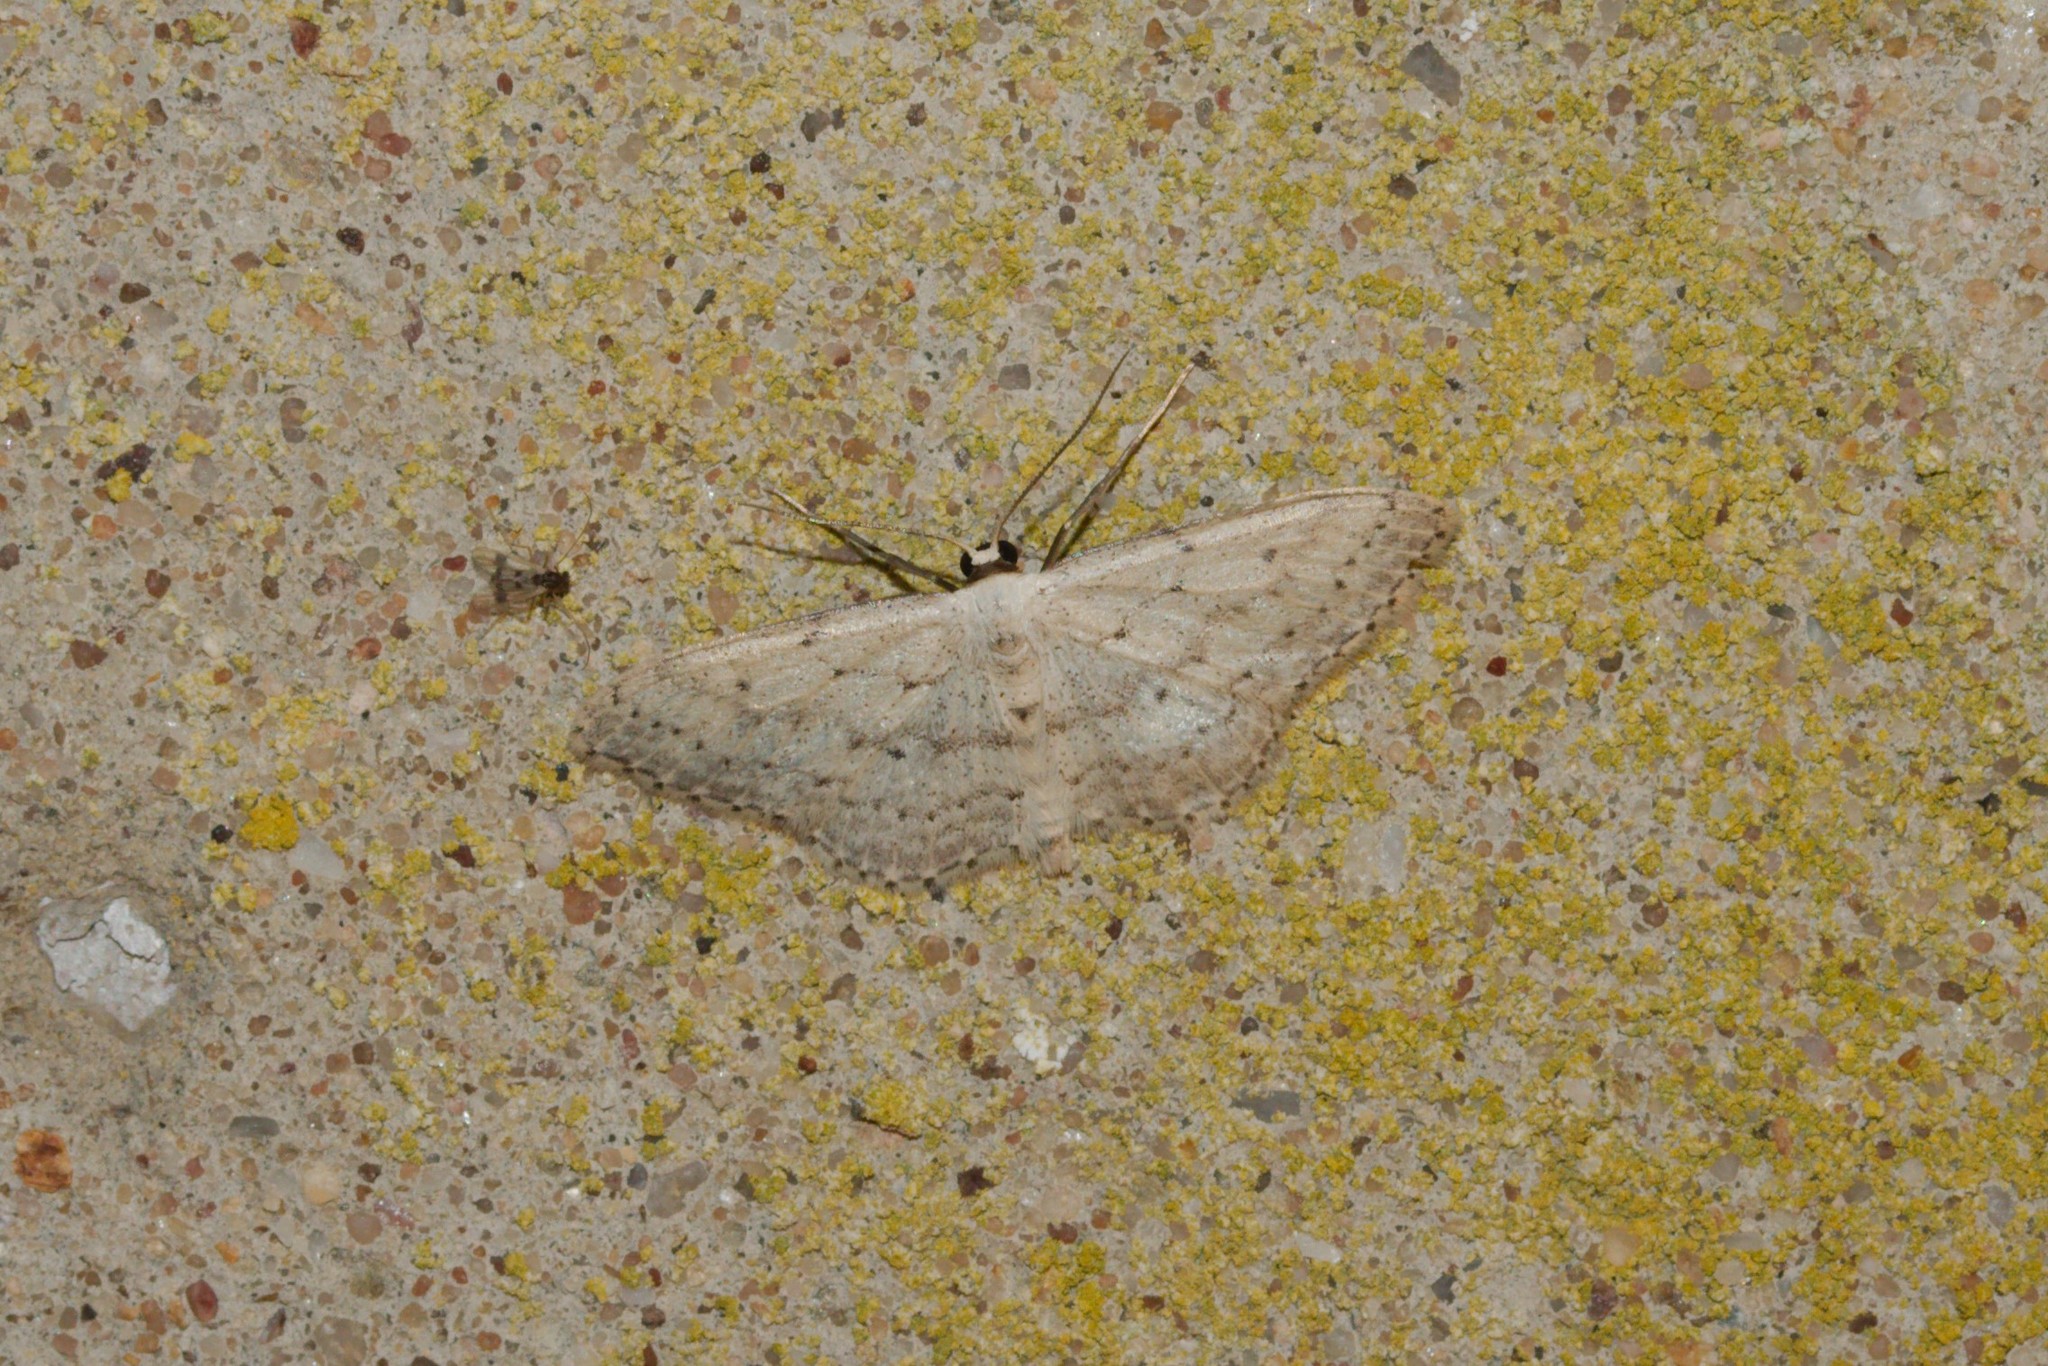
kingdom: Animalia
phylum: Arthropoda
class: Insecta
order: Lepidoptera
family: Geometridae
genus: Idaea
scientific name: Idaea seriata
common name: Small dusty wave
